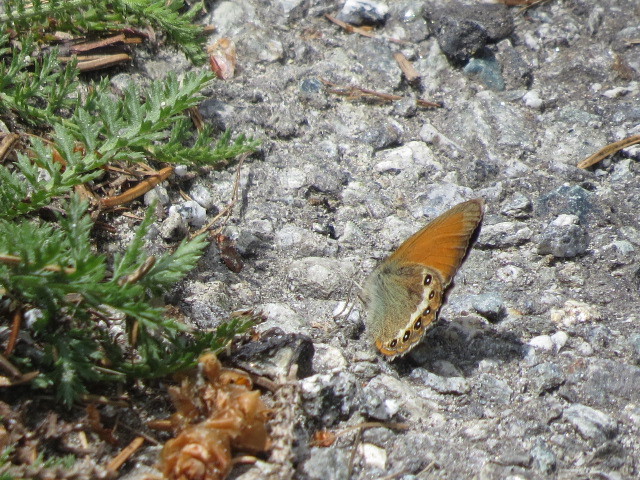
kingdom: Animalia
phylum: Arthropoda
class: Insecta
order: Lepidoptera
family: Nymphalidae
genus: Coenonympha
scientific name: Coenonympha
